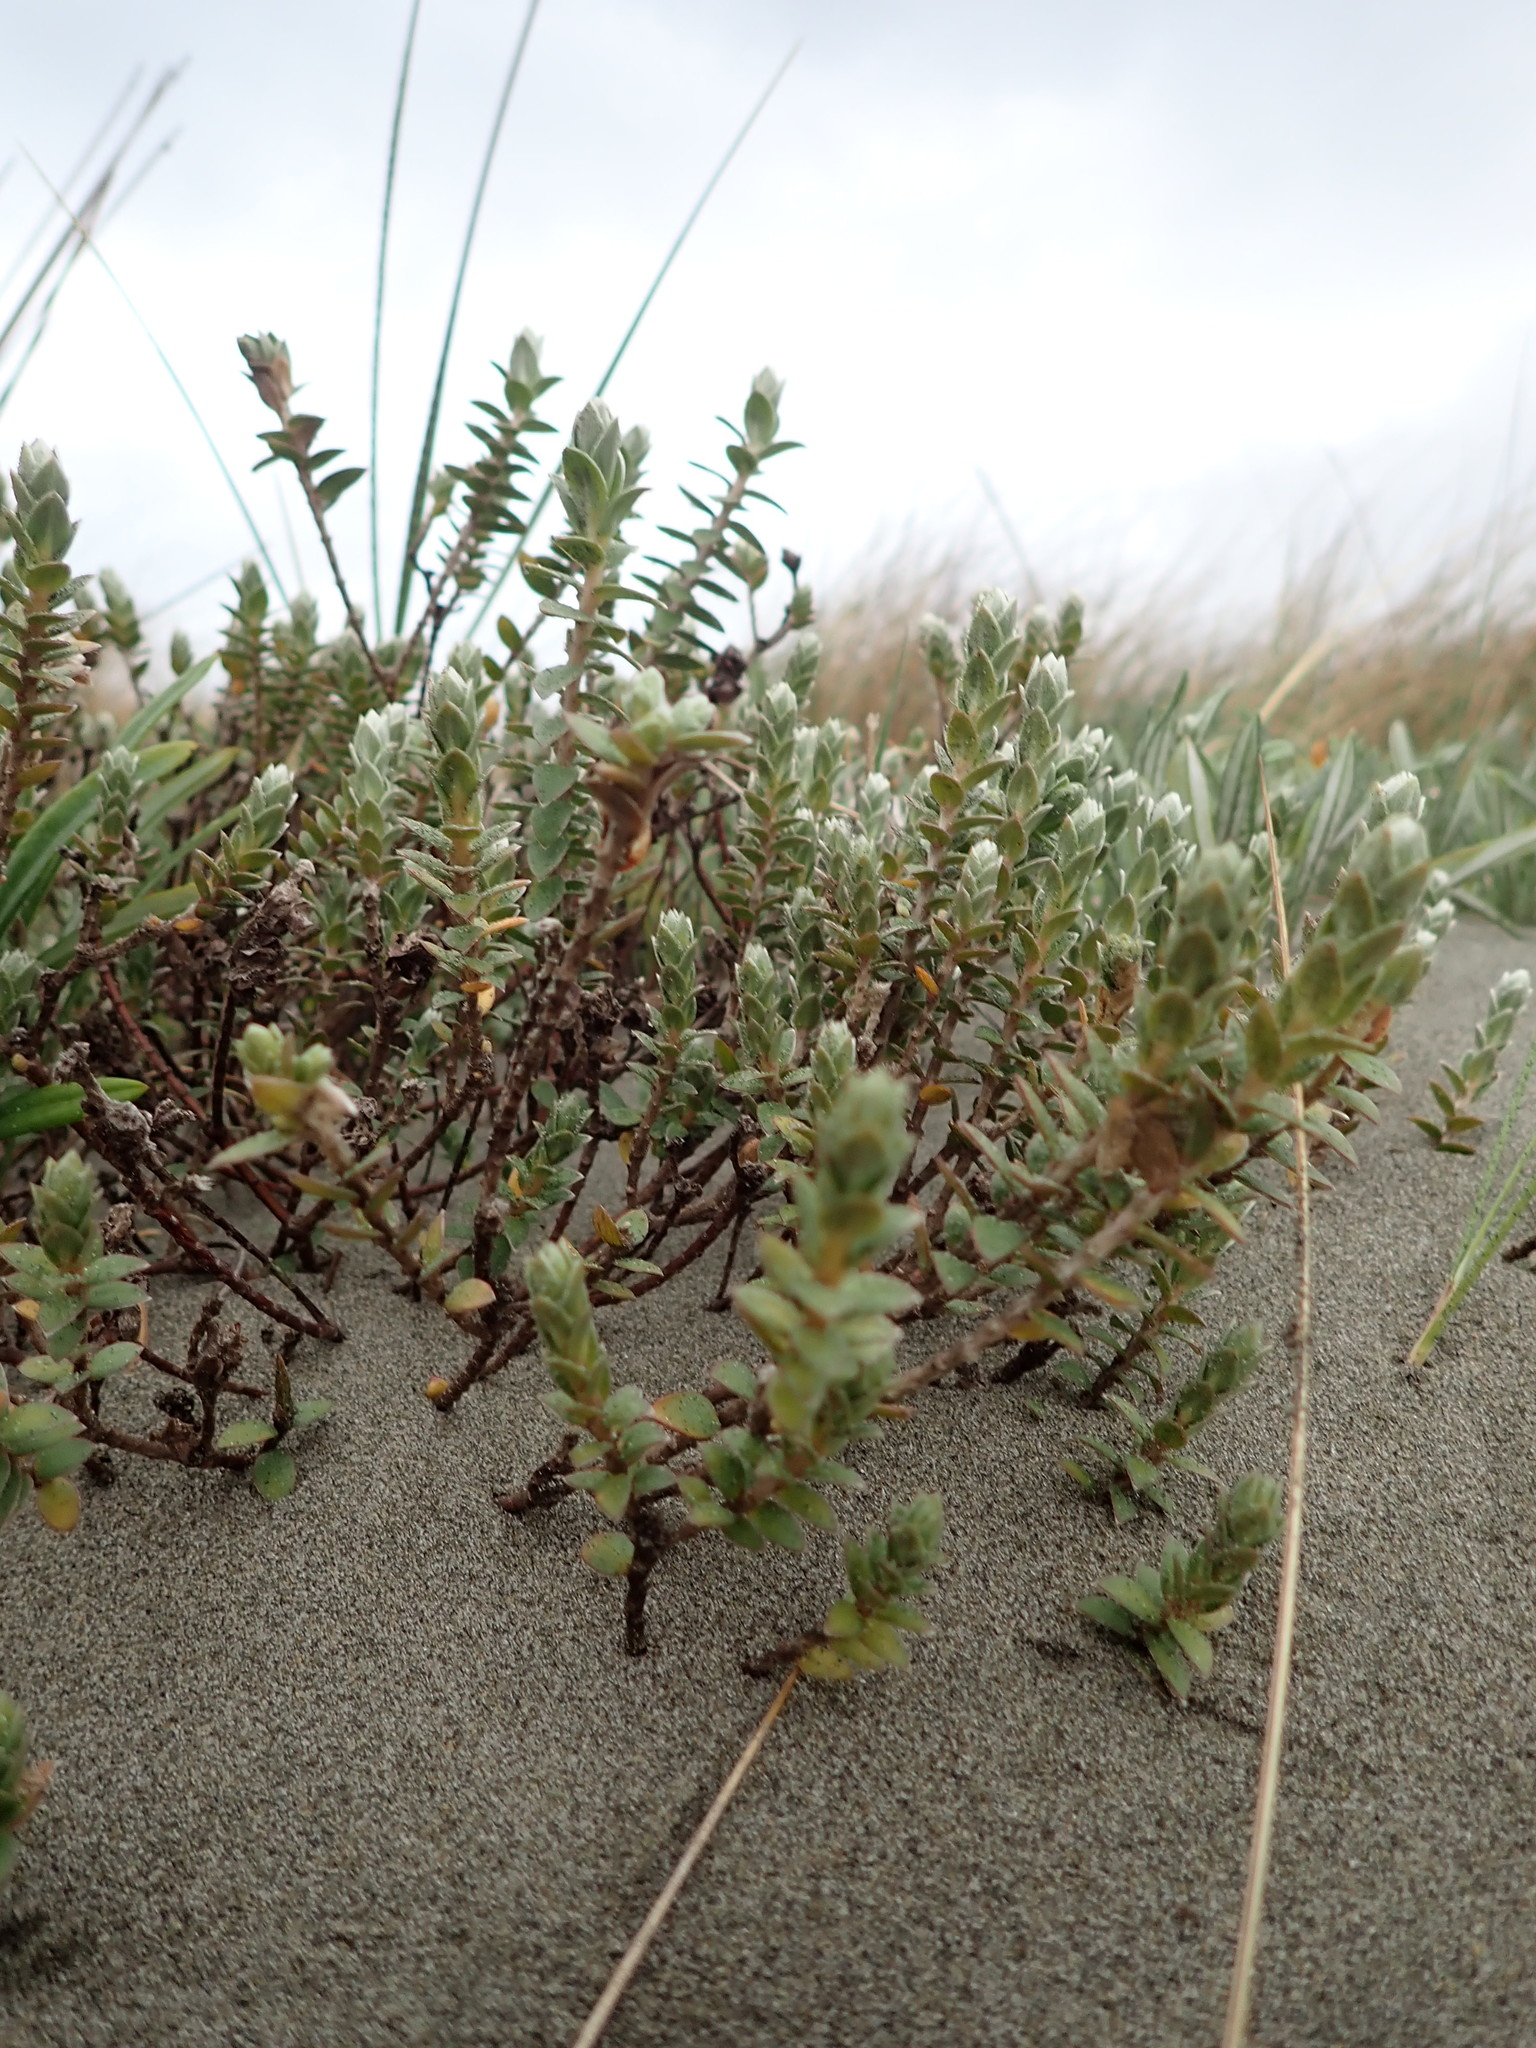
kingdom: Plantae
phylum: Tracheophyta
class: Magnoliopsida
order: Malvales
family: Thymelaeaceae
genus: Pimelea
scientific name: Pimelea villosa
